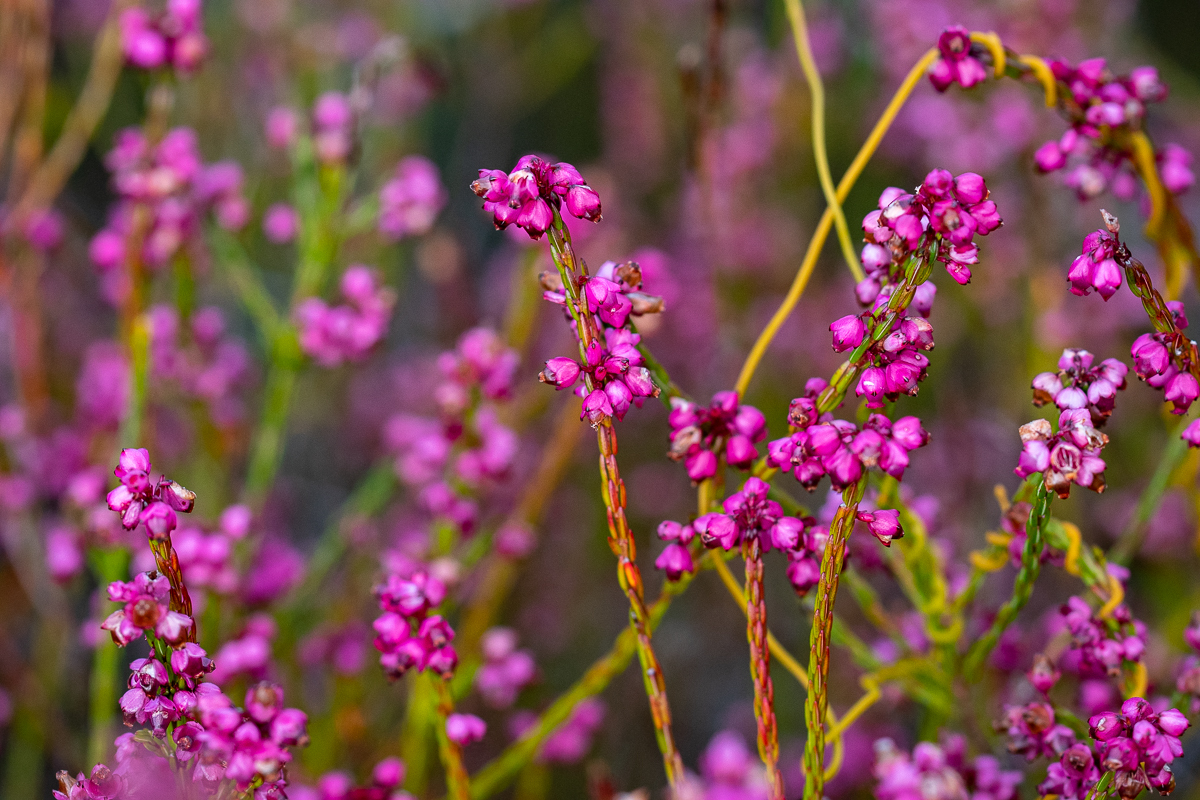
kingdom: Plantae
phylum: Tracheophyta
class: Magnoliopsida
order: Ericales
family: Ericaceae
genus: Erica
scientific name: Erica rhopalantha
